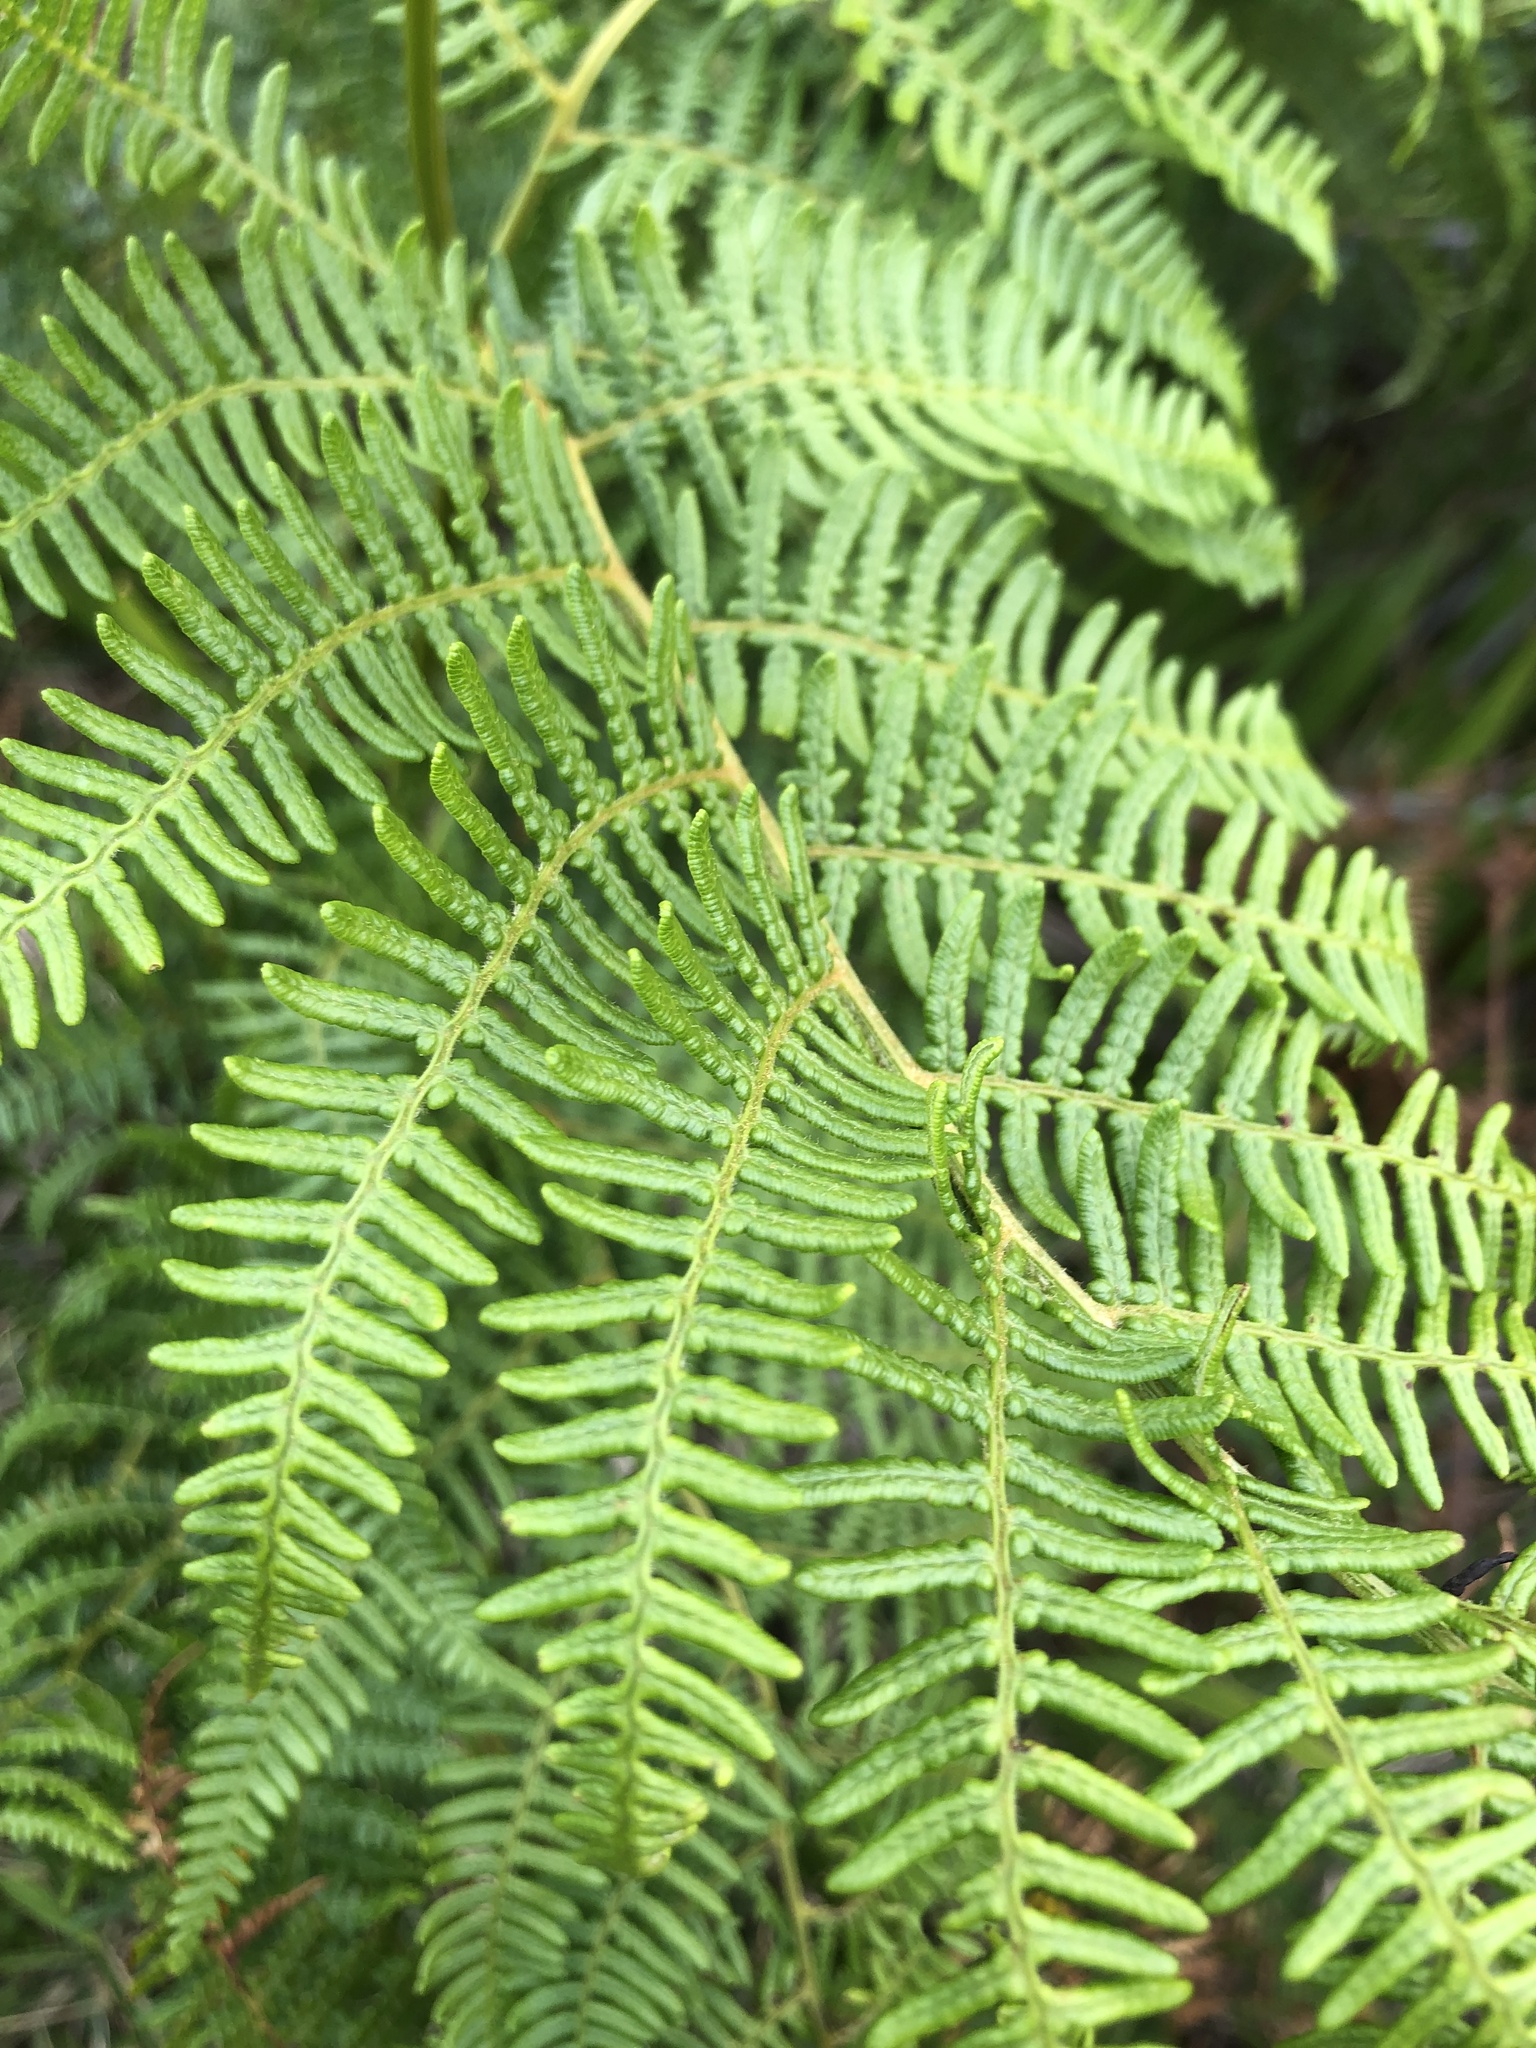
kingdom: Plantae
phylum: Tracheophyta
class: Polypodiopsida
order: Polypodiales
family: Dennstaedtiaceae
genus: Pteridium
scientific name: Pteridium aquilinum
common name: Bracken
